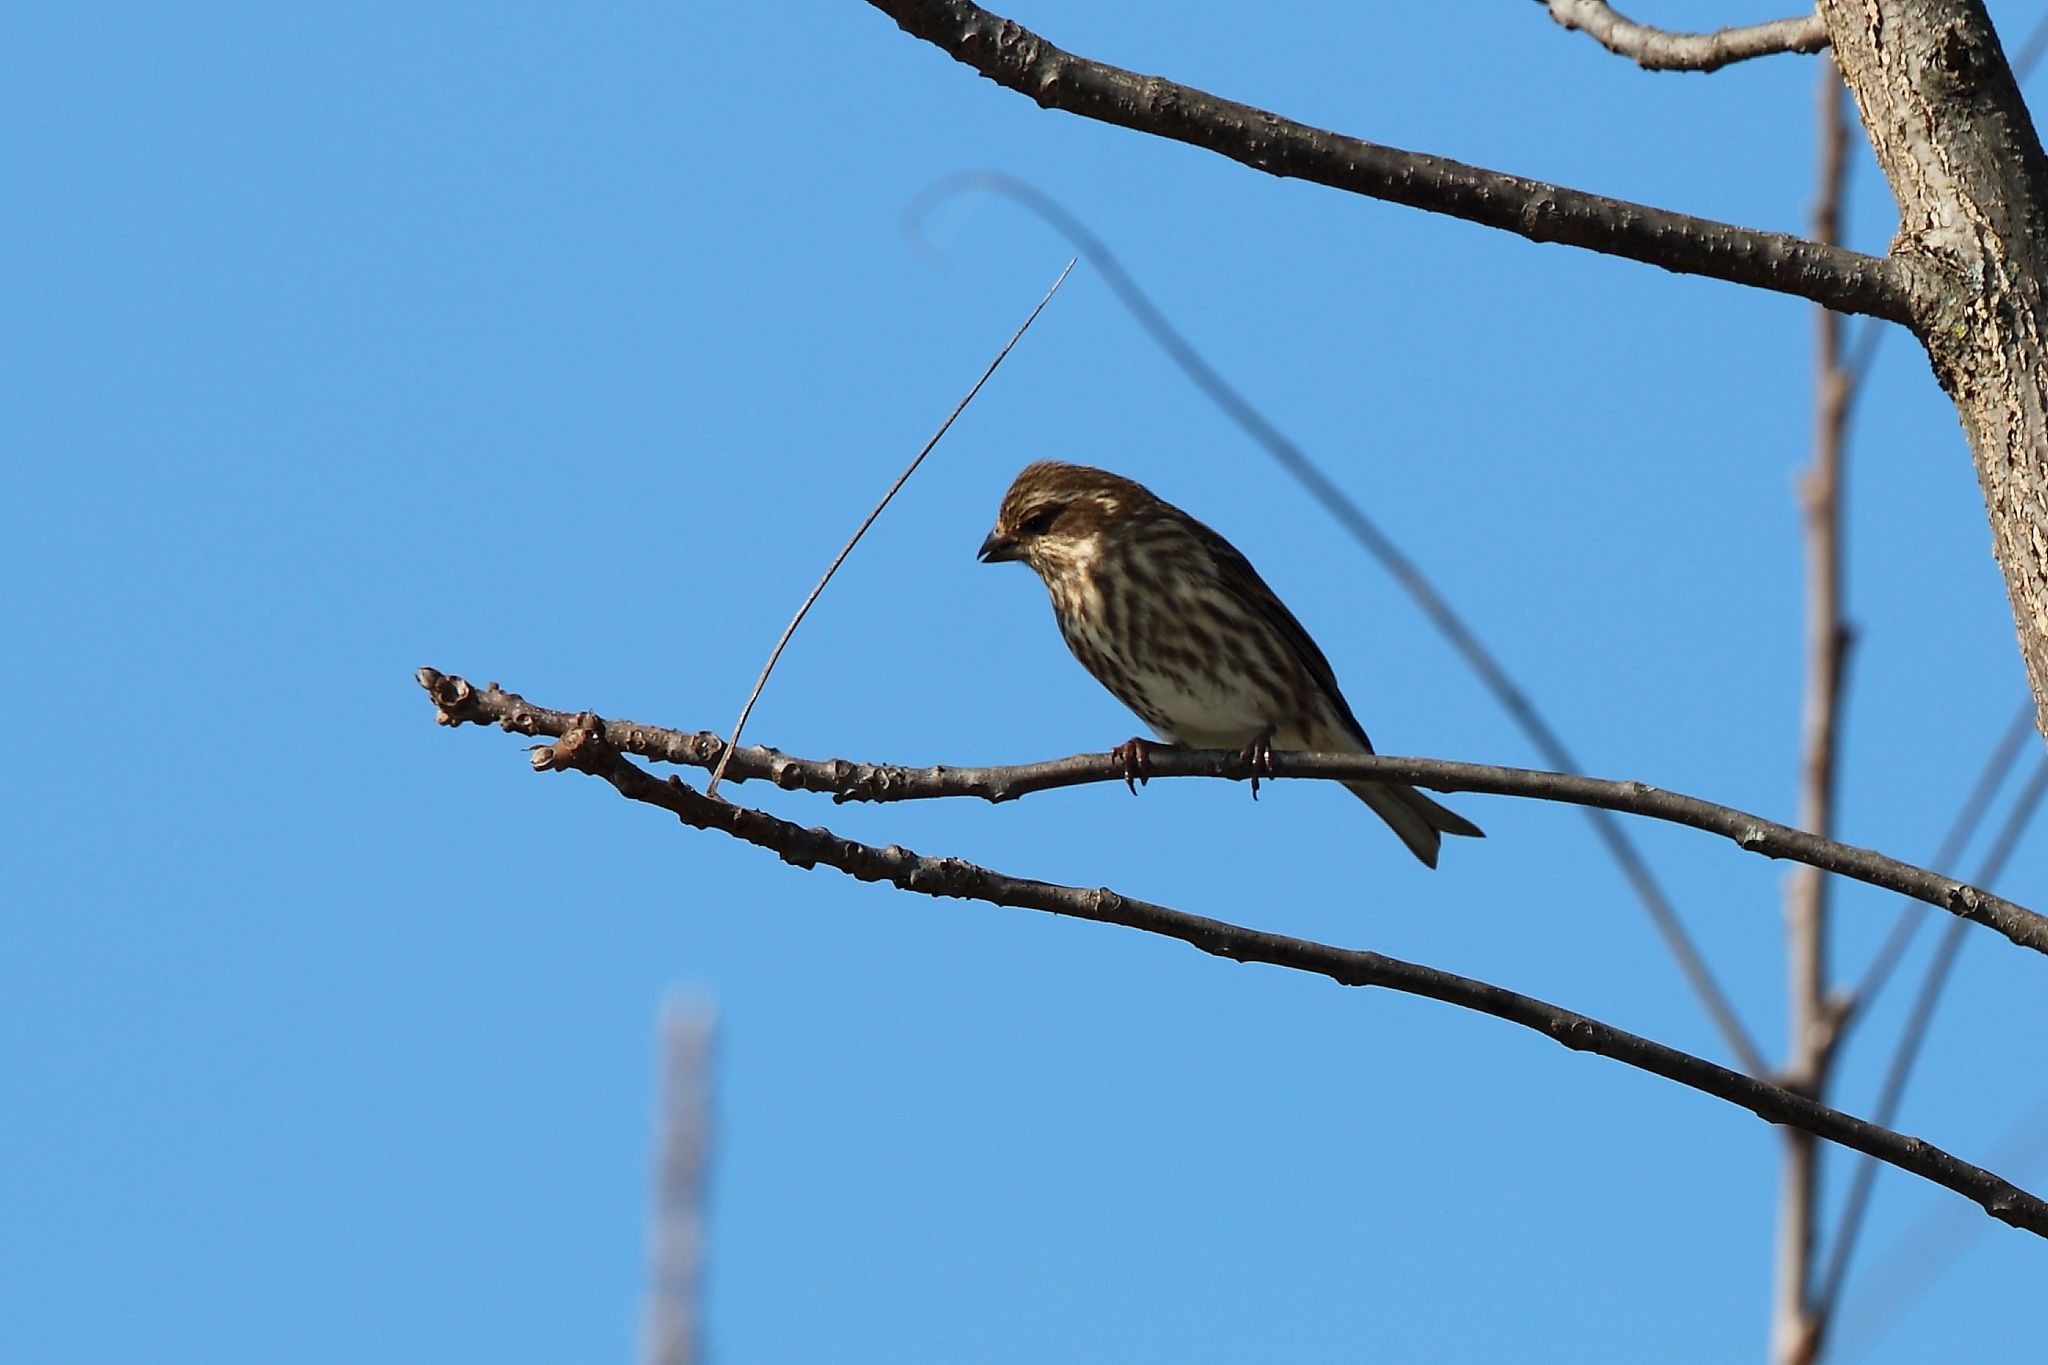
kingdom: Animalia
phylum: Chordata
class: Aves
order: Passeriformes
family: Fringillidae
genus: Haemorhous
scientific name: Haemorhous purpureus
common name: Purple finch
